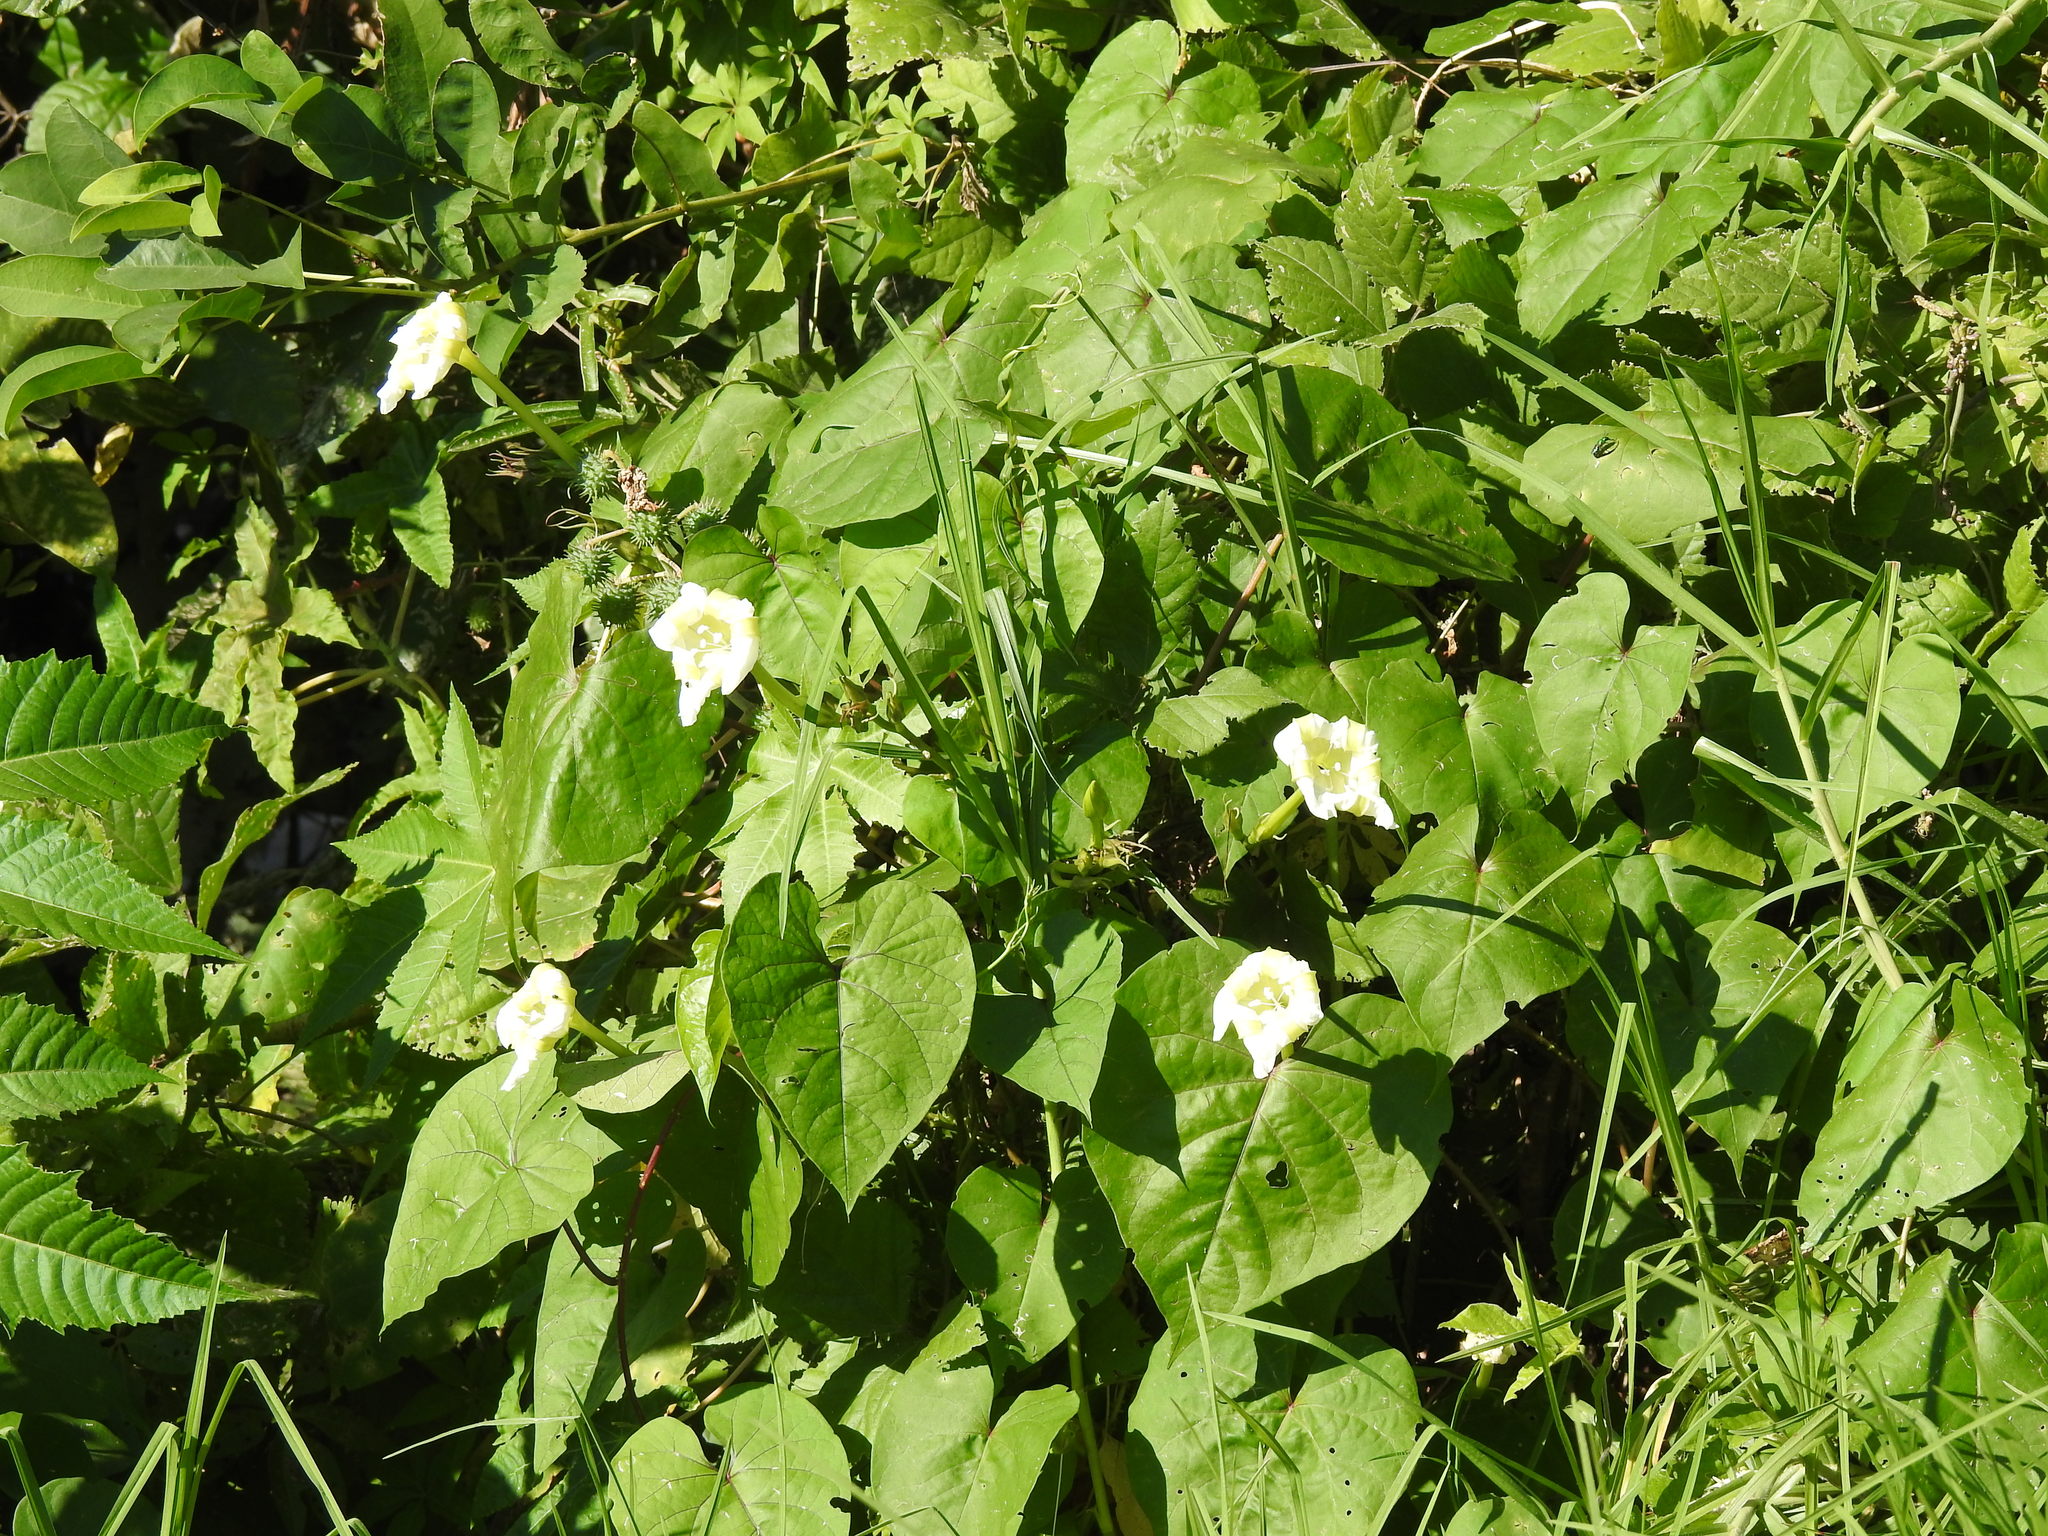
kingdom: Plantae
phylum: Tracheophyta
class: Magnoliopsida
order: Solanales
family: Convolvulaceae
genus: Ipomoea
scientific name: Ipomoea alba
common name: Moonflower
